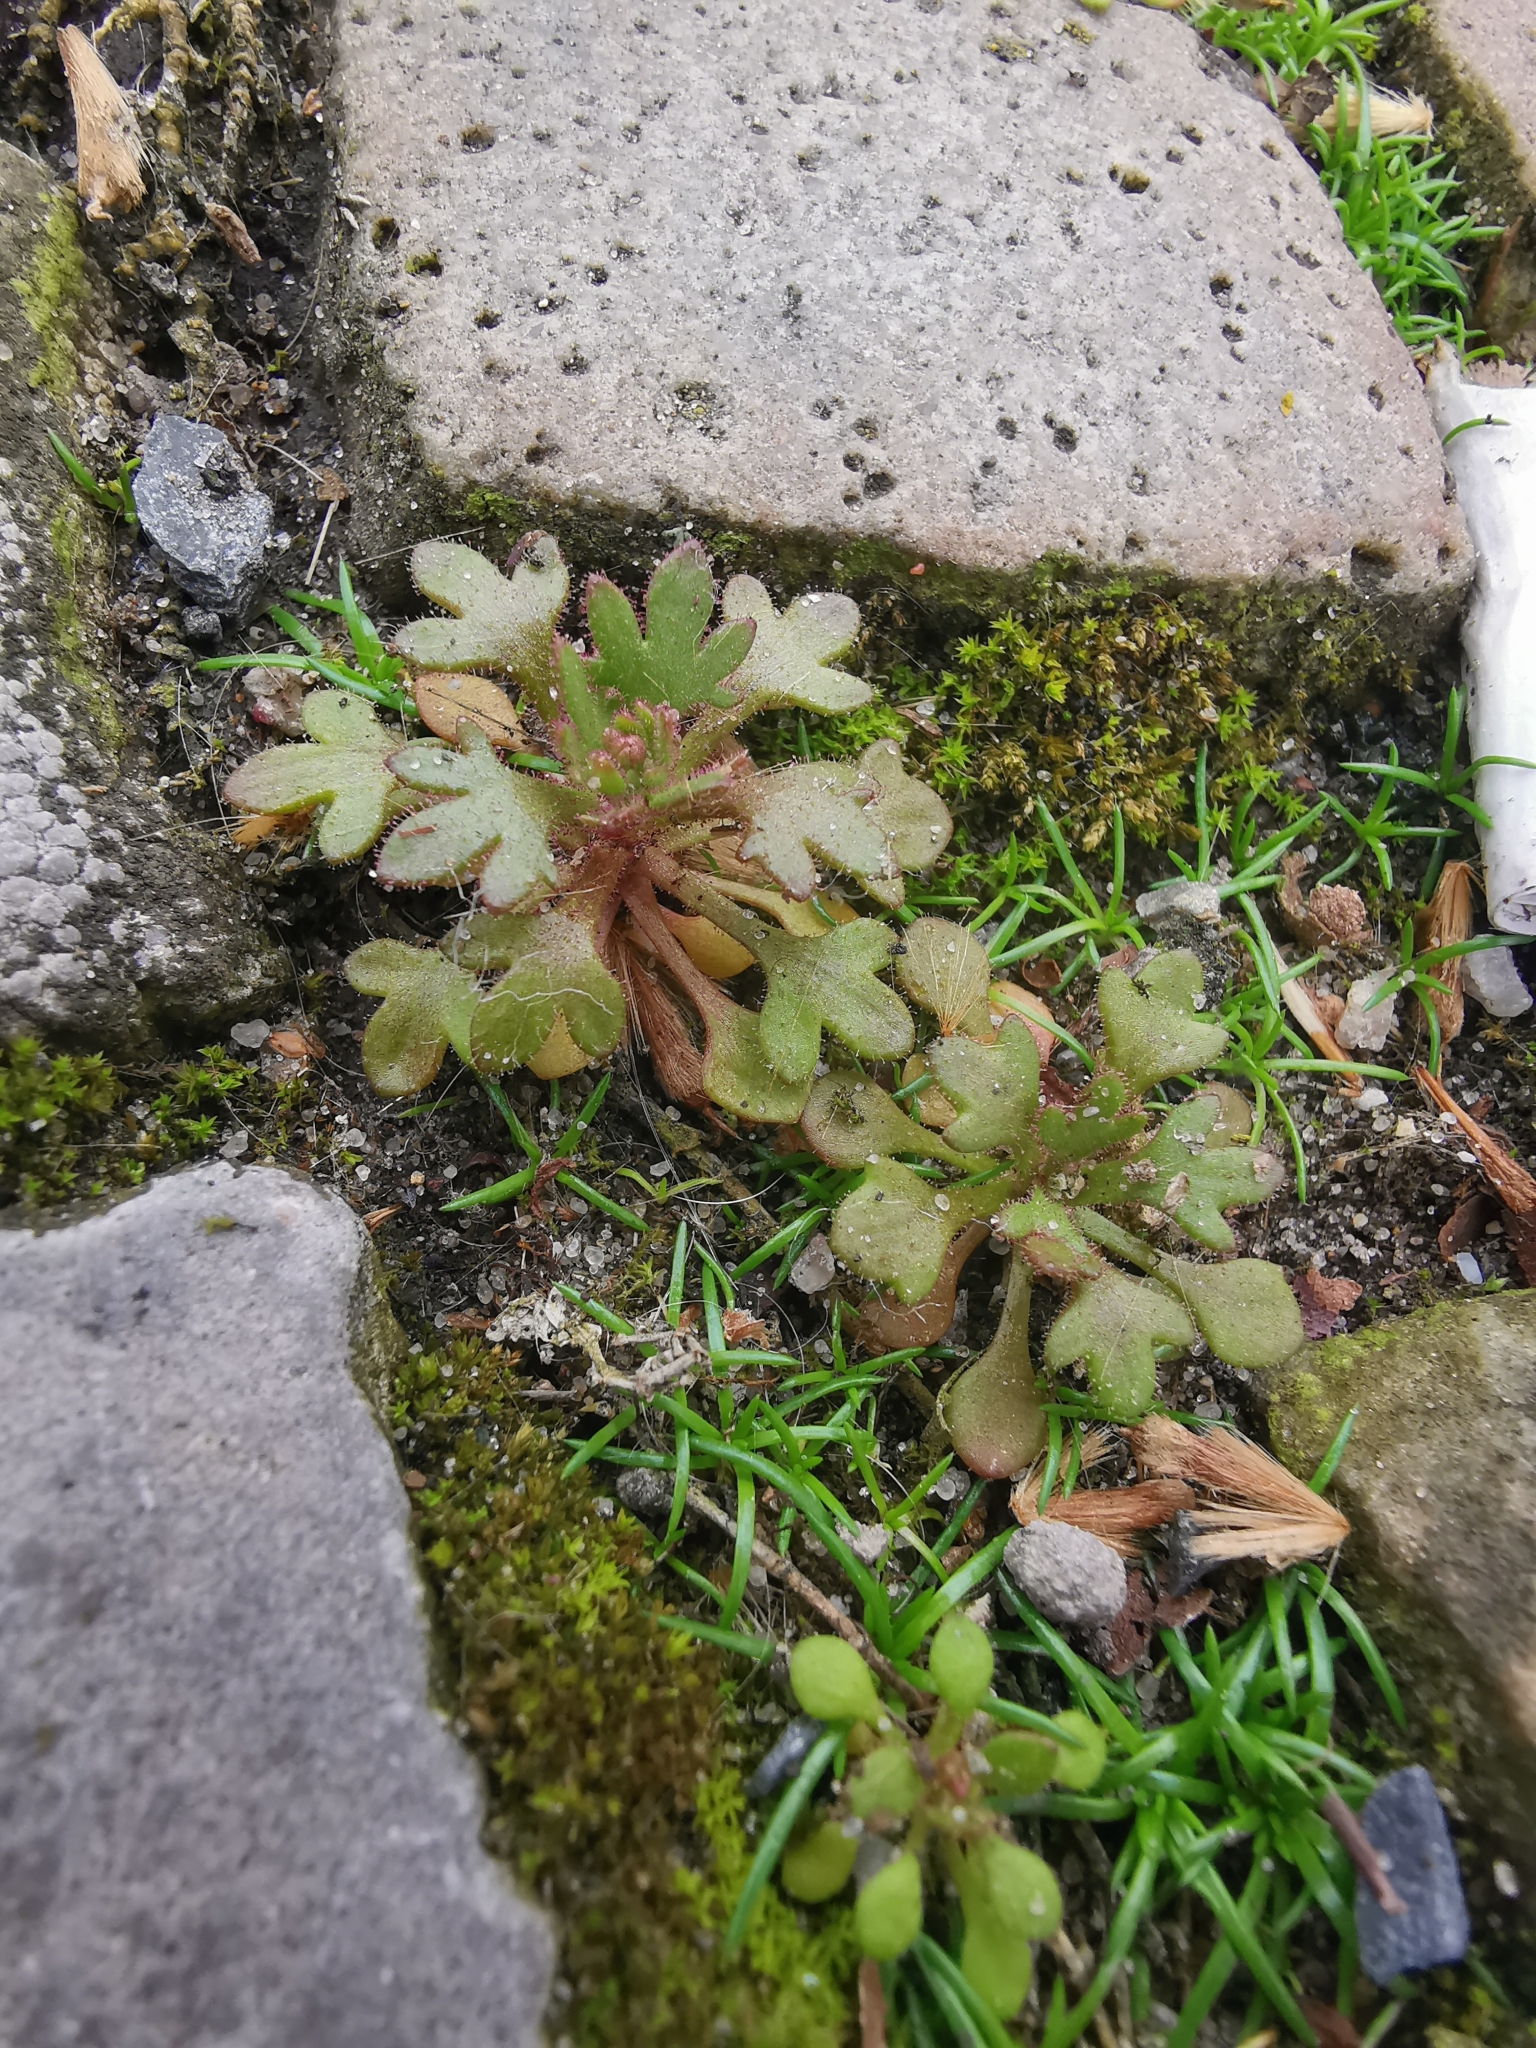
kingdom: Plantae
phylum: Tracheophyta
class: Magnoliopsida
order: Saxifragales
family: Saxifragaceae
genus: Saxifraga
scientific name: Saxifraga tridactylites
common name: Rue-leaved saxifrage
